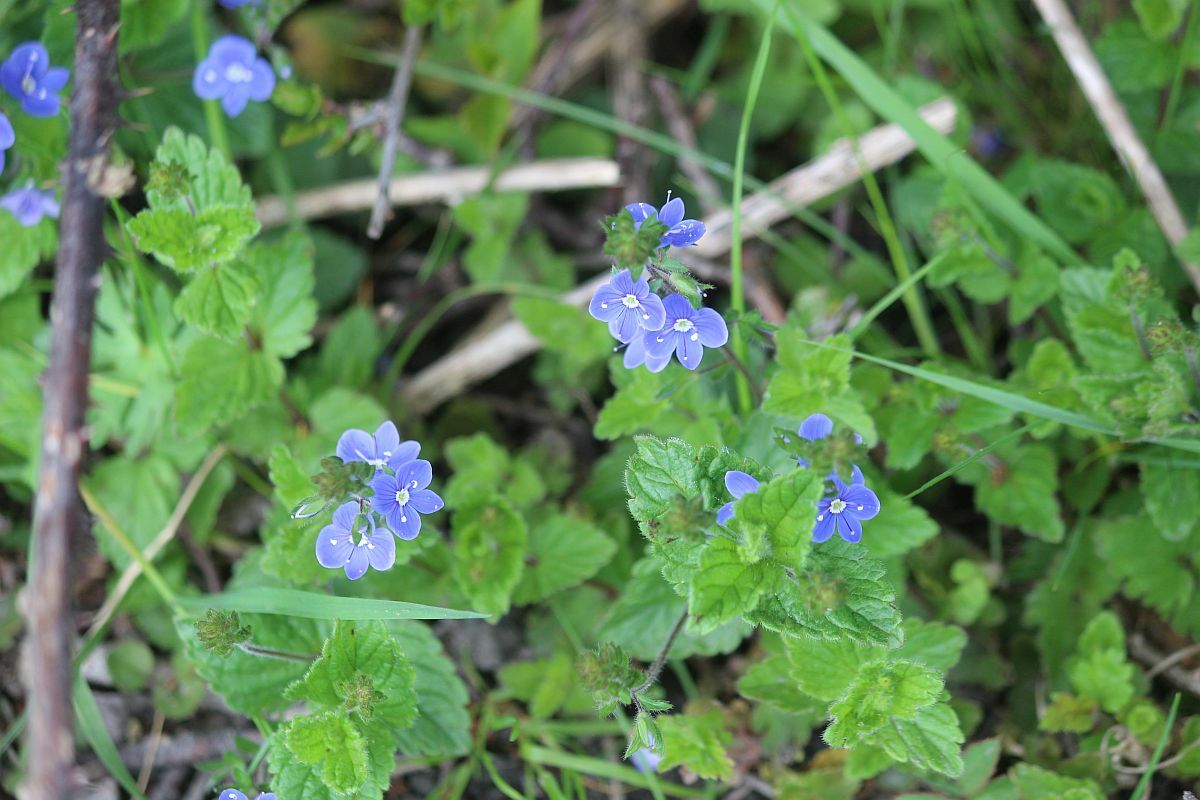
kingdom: Plantae
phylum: Tracheophyta
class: Magnoliopsida
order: Lamiales
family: Plantaginaceae
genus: Veronica
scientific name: Veronica chamaedrys
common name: Germander speedwell
